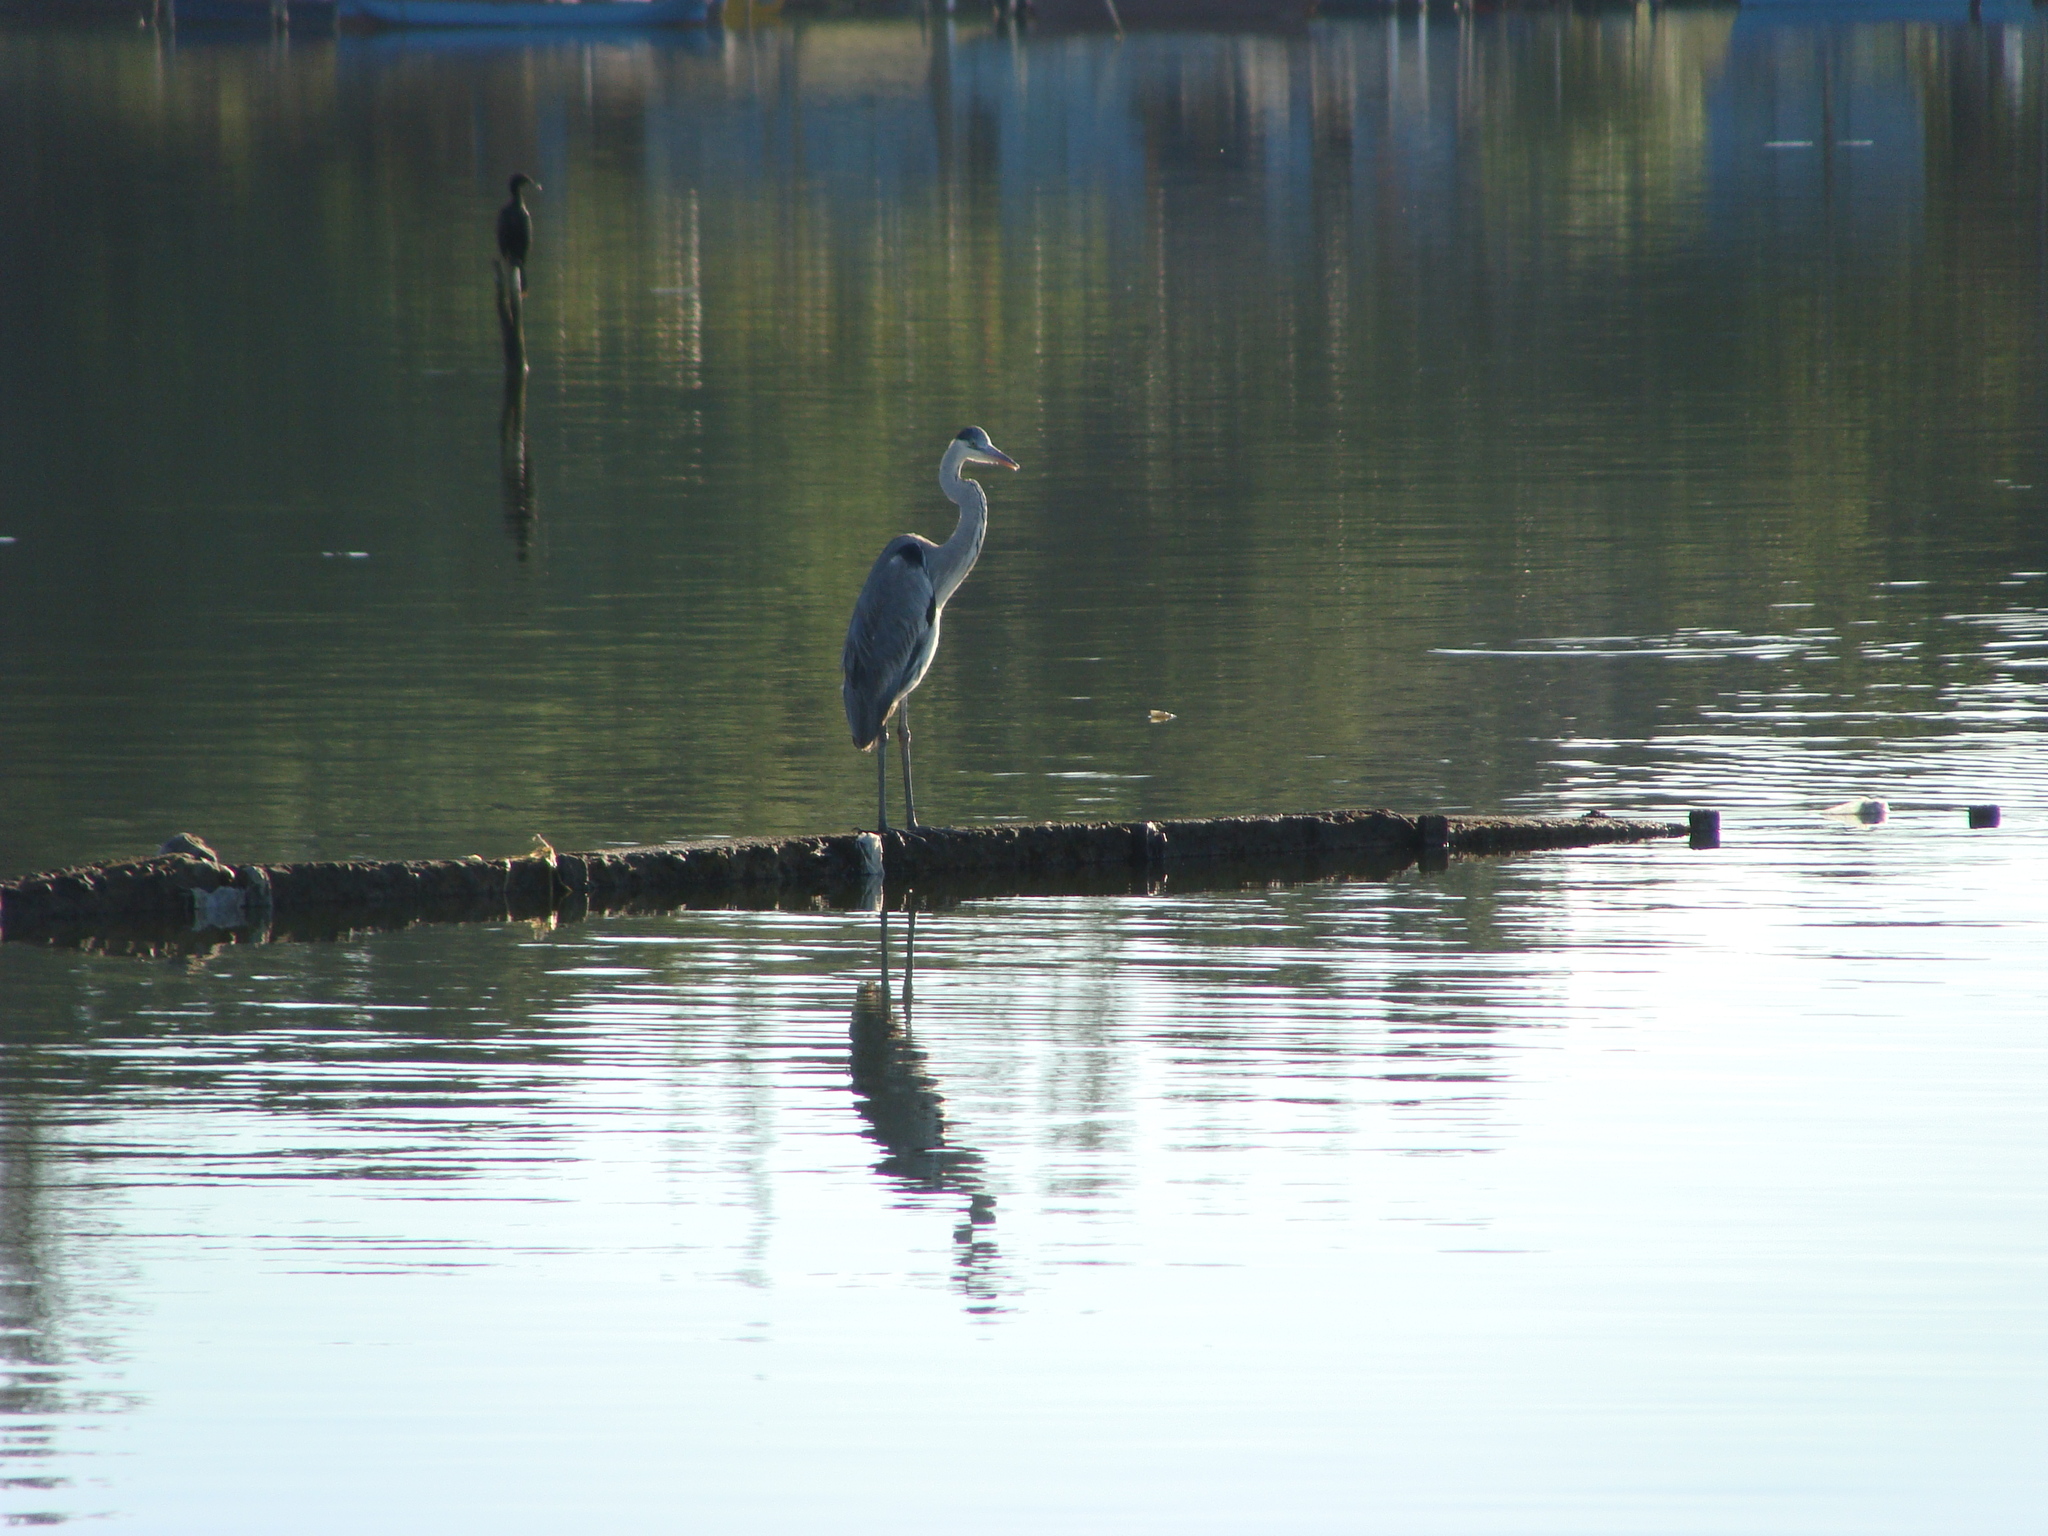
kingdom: Animalia
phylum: Chordata
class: Aves
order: Pelecaniformes
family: Ardeidae
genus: Ardea
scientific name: Ardea cocoi
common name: Cocoi heron
